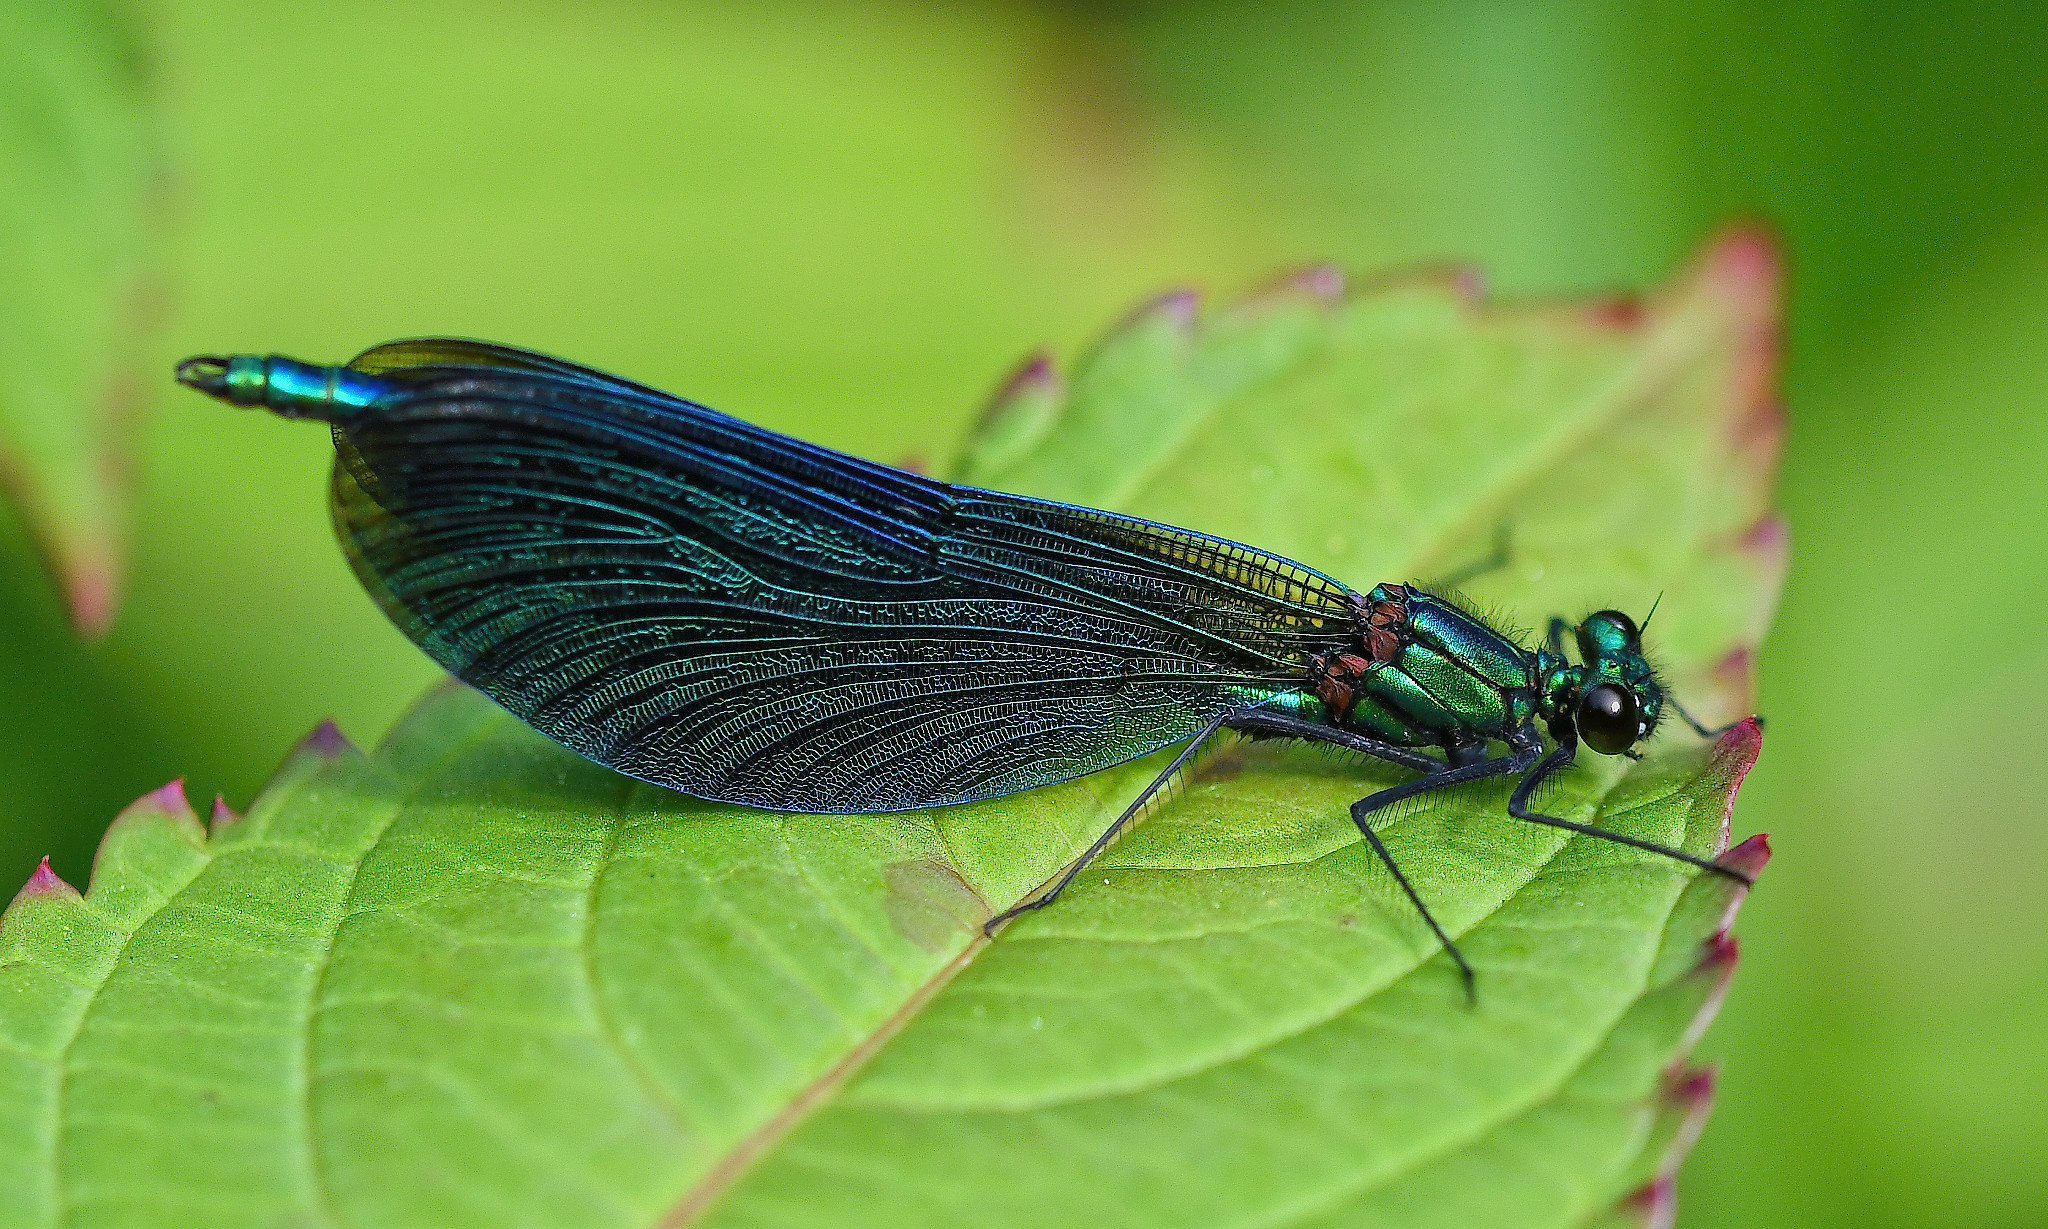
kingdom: Animalia
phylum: Arthropoda
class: Insecta
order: Odonata
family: Calopterygidae
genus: Calopteryx
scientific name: Calopteryx virgo
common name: Beautiful demoiselle
